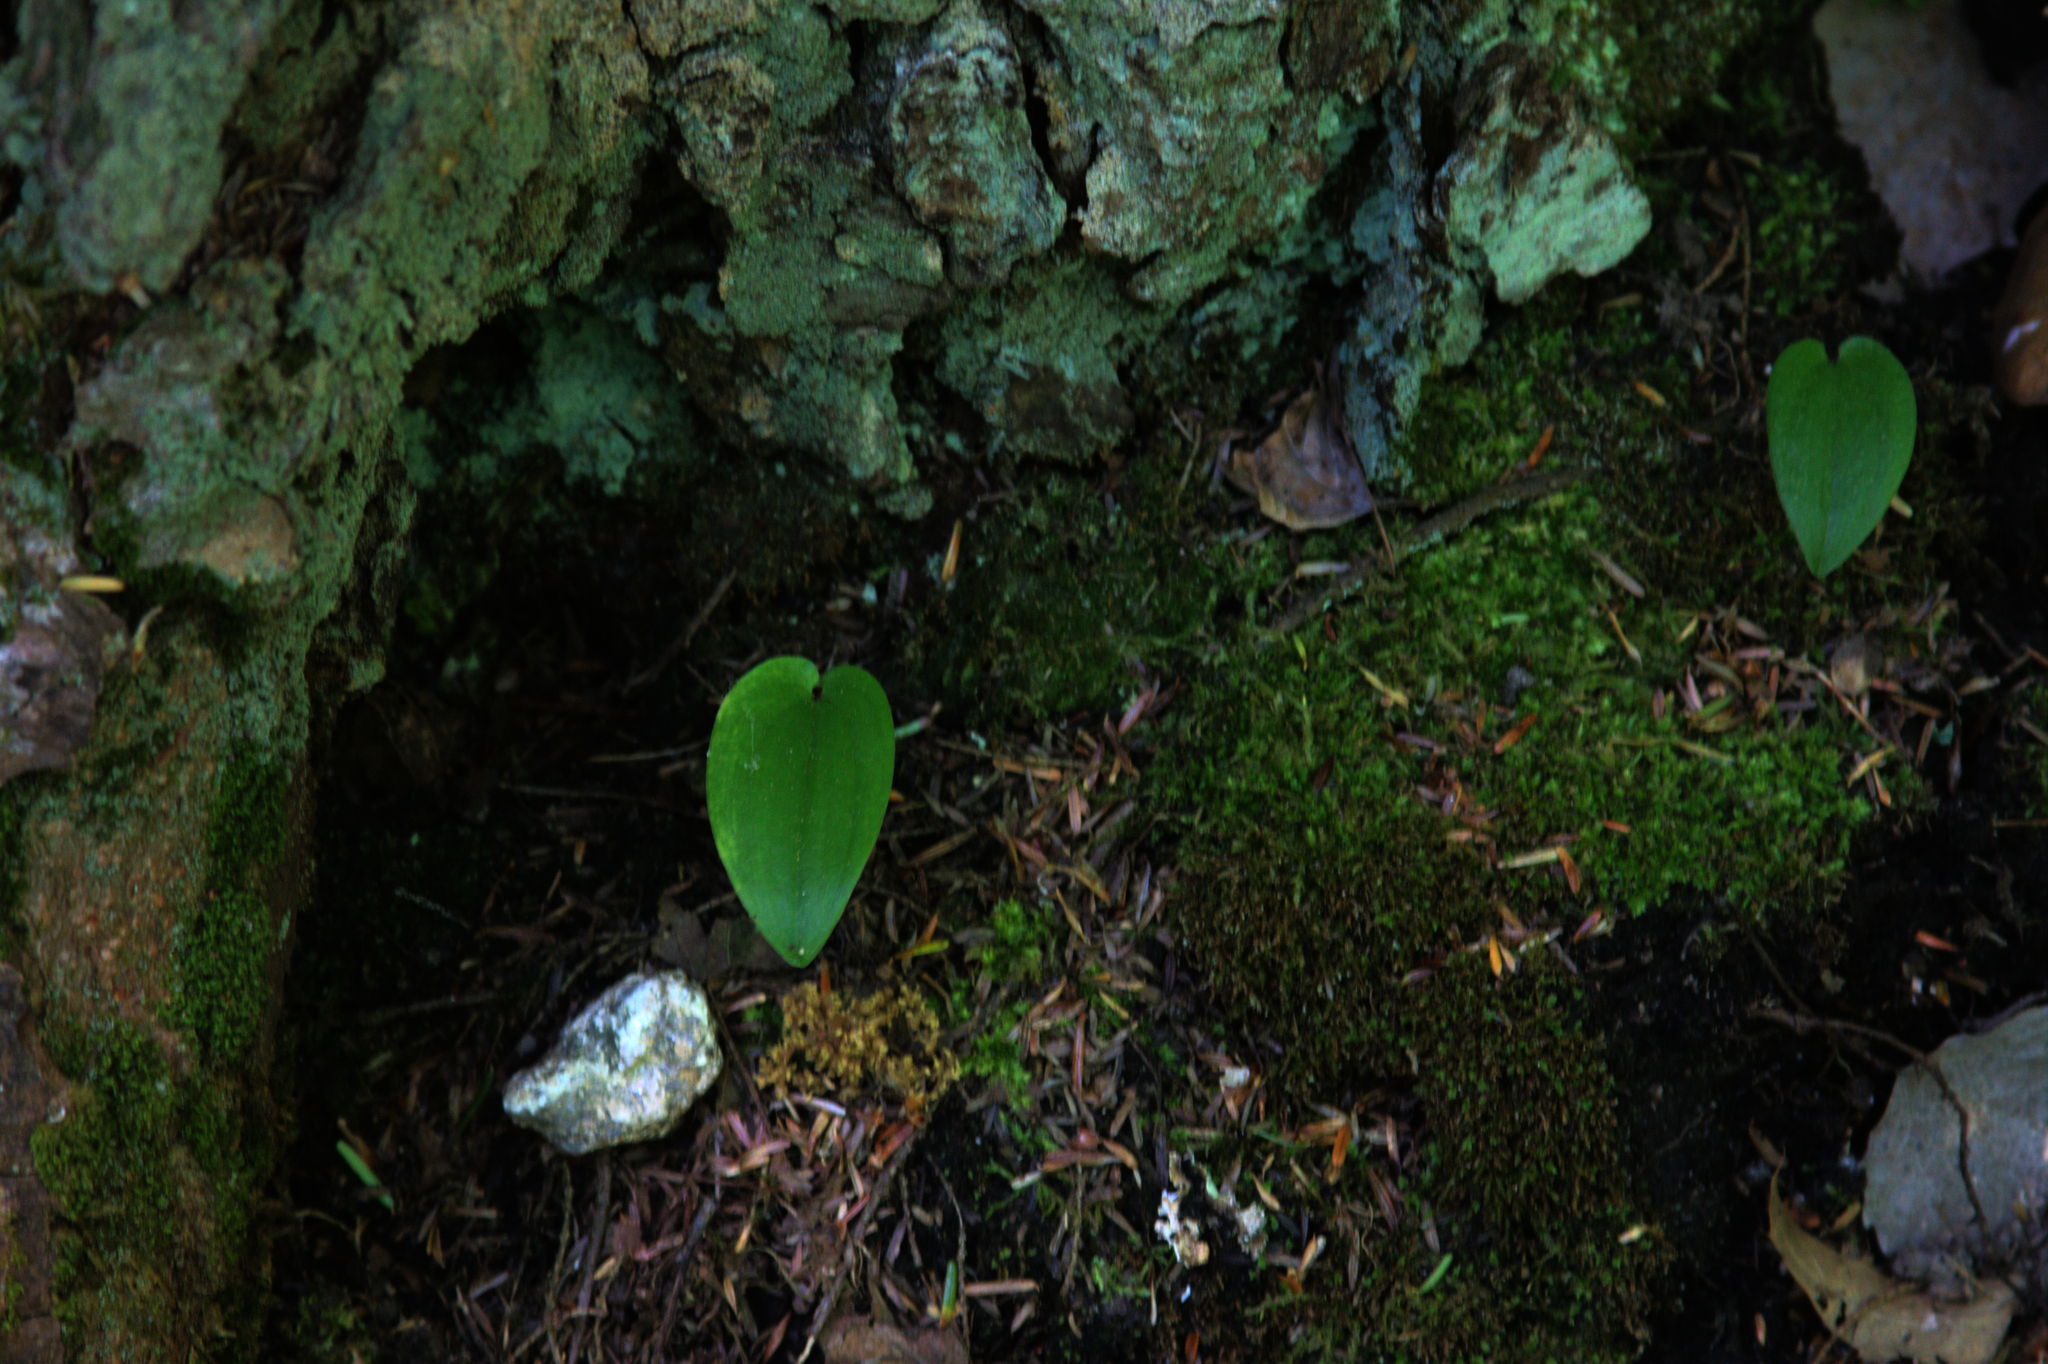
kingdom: Plantae
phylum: Tracheophyta
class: Liliopsida
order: Asparagales
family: Asparagaceae
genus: Maianthemum
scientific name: Maianthemum canadense
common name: False lily-of-the-valley
